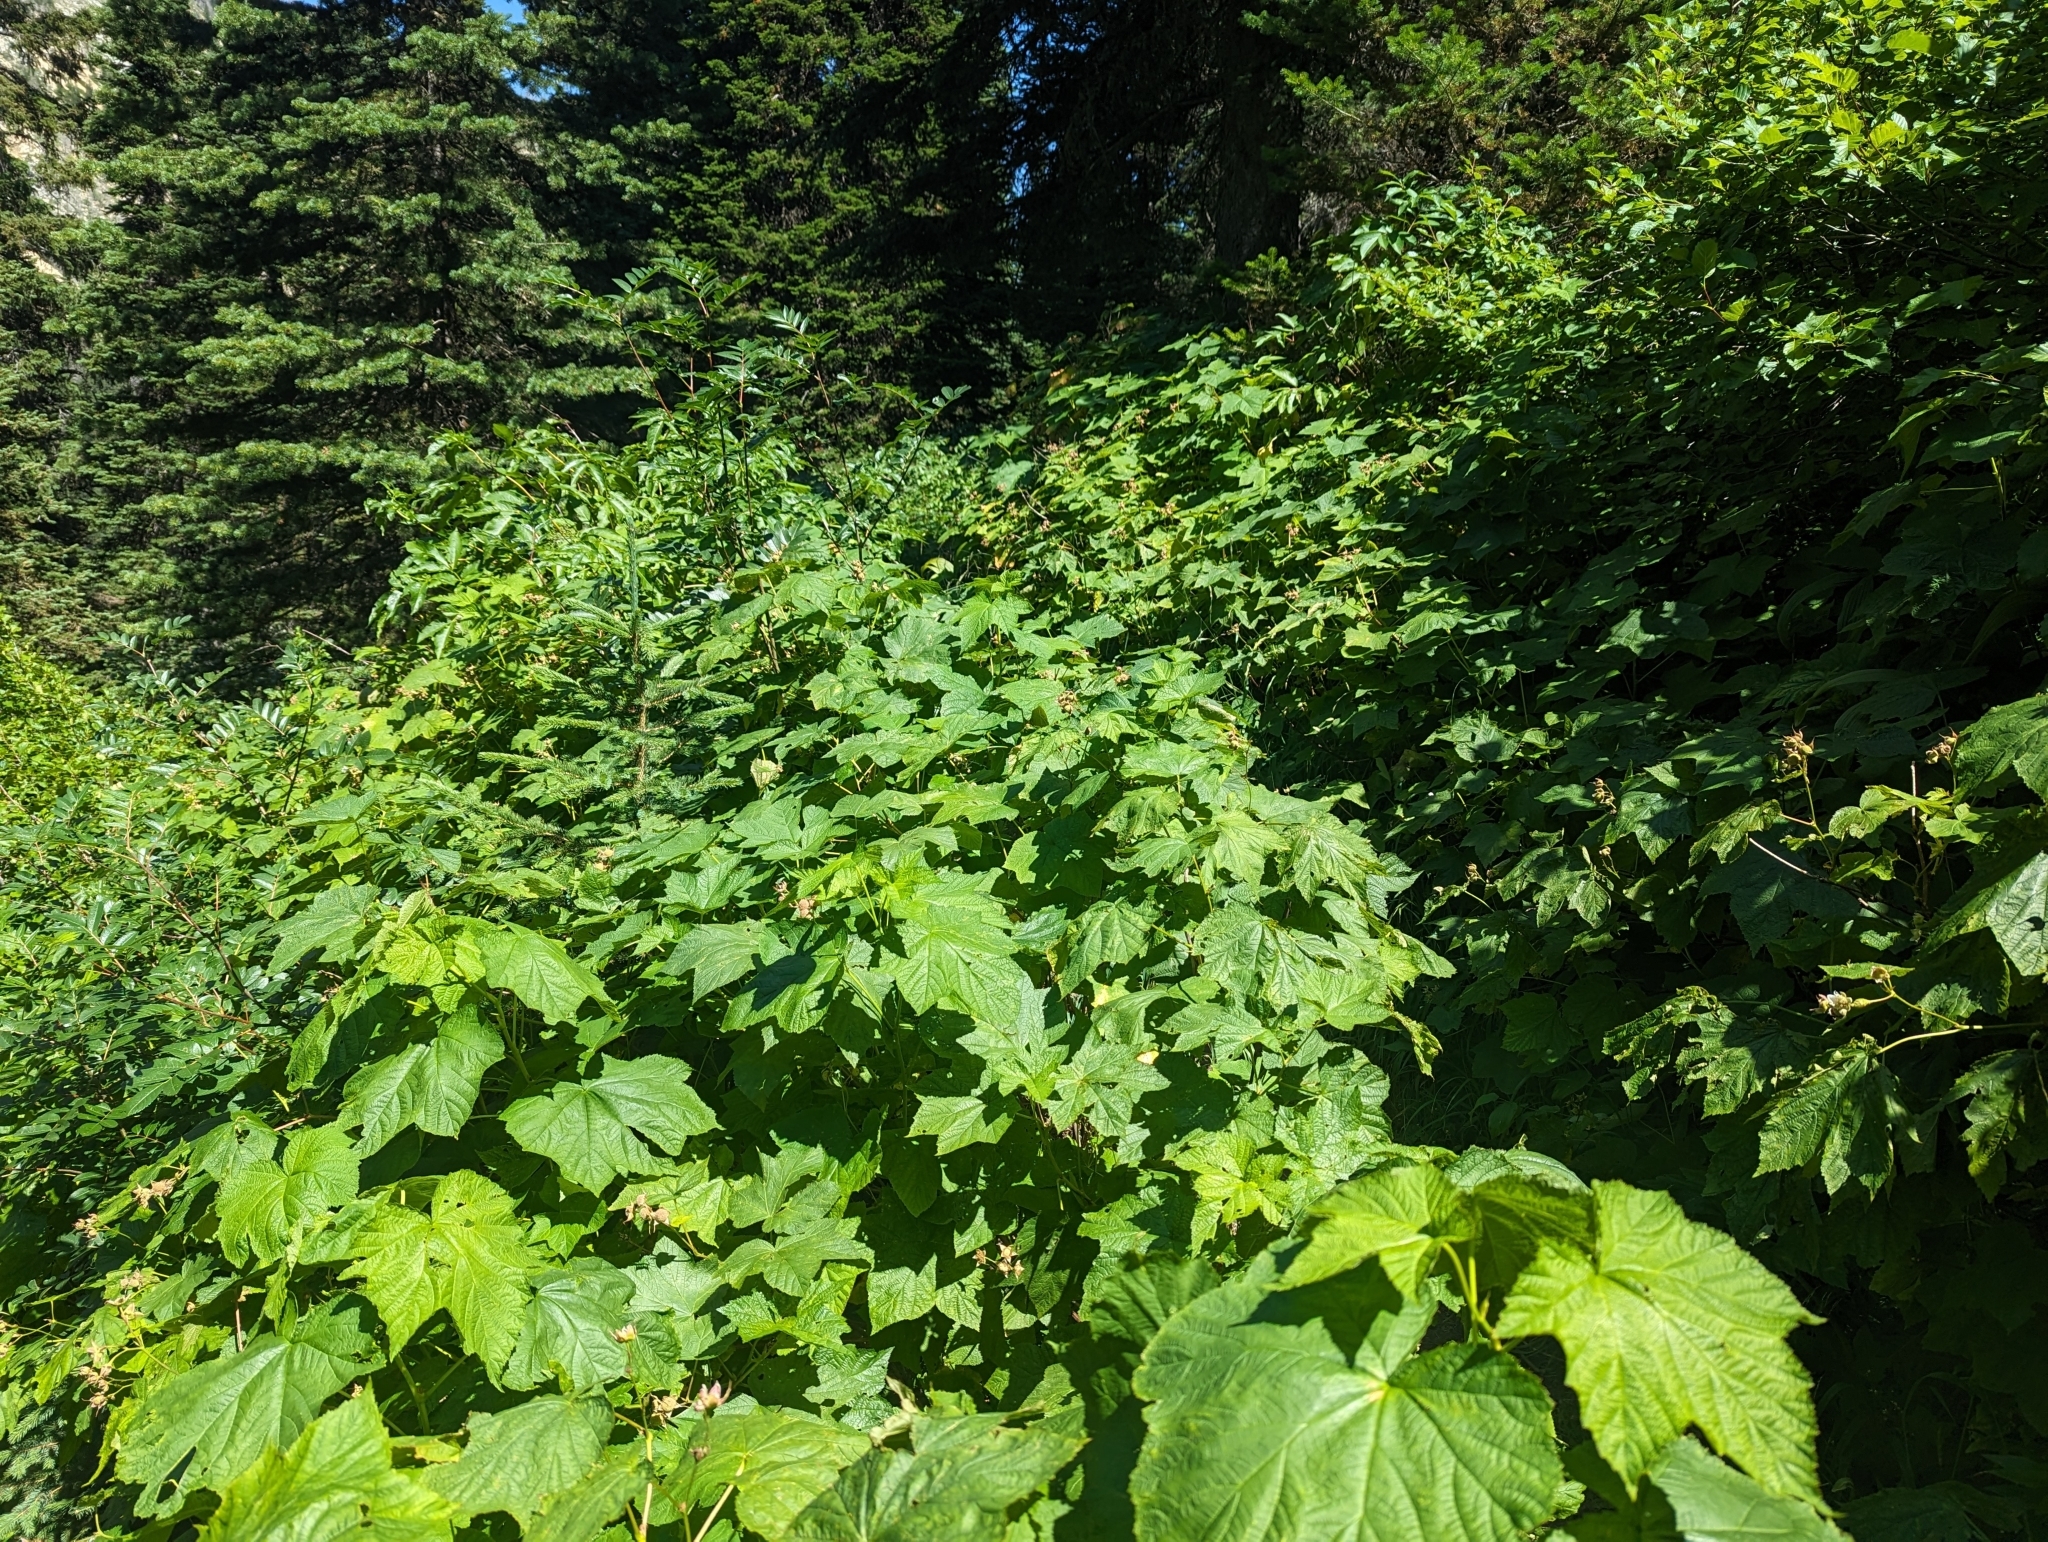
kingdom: Plantae
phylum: Tracheophyta
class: Magnoliopsida
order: Rosales
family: Rosaceae
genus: Rubus
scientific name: Rubus parviflorus
